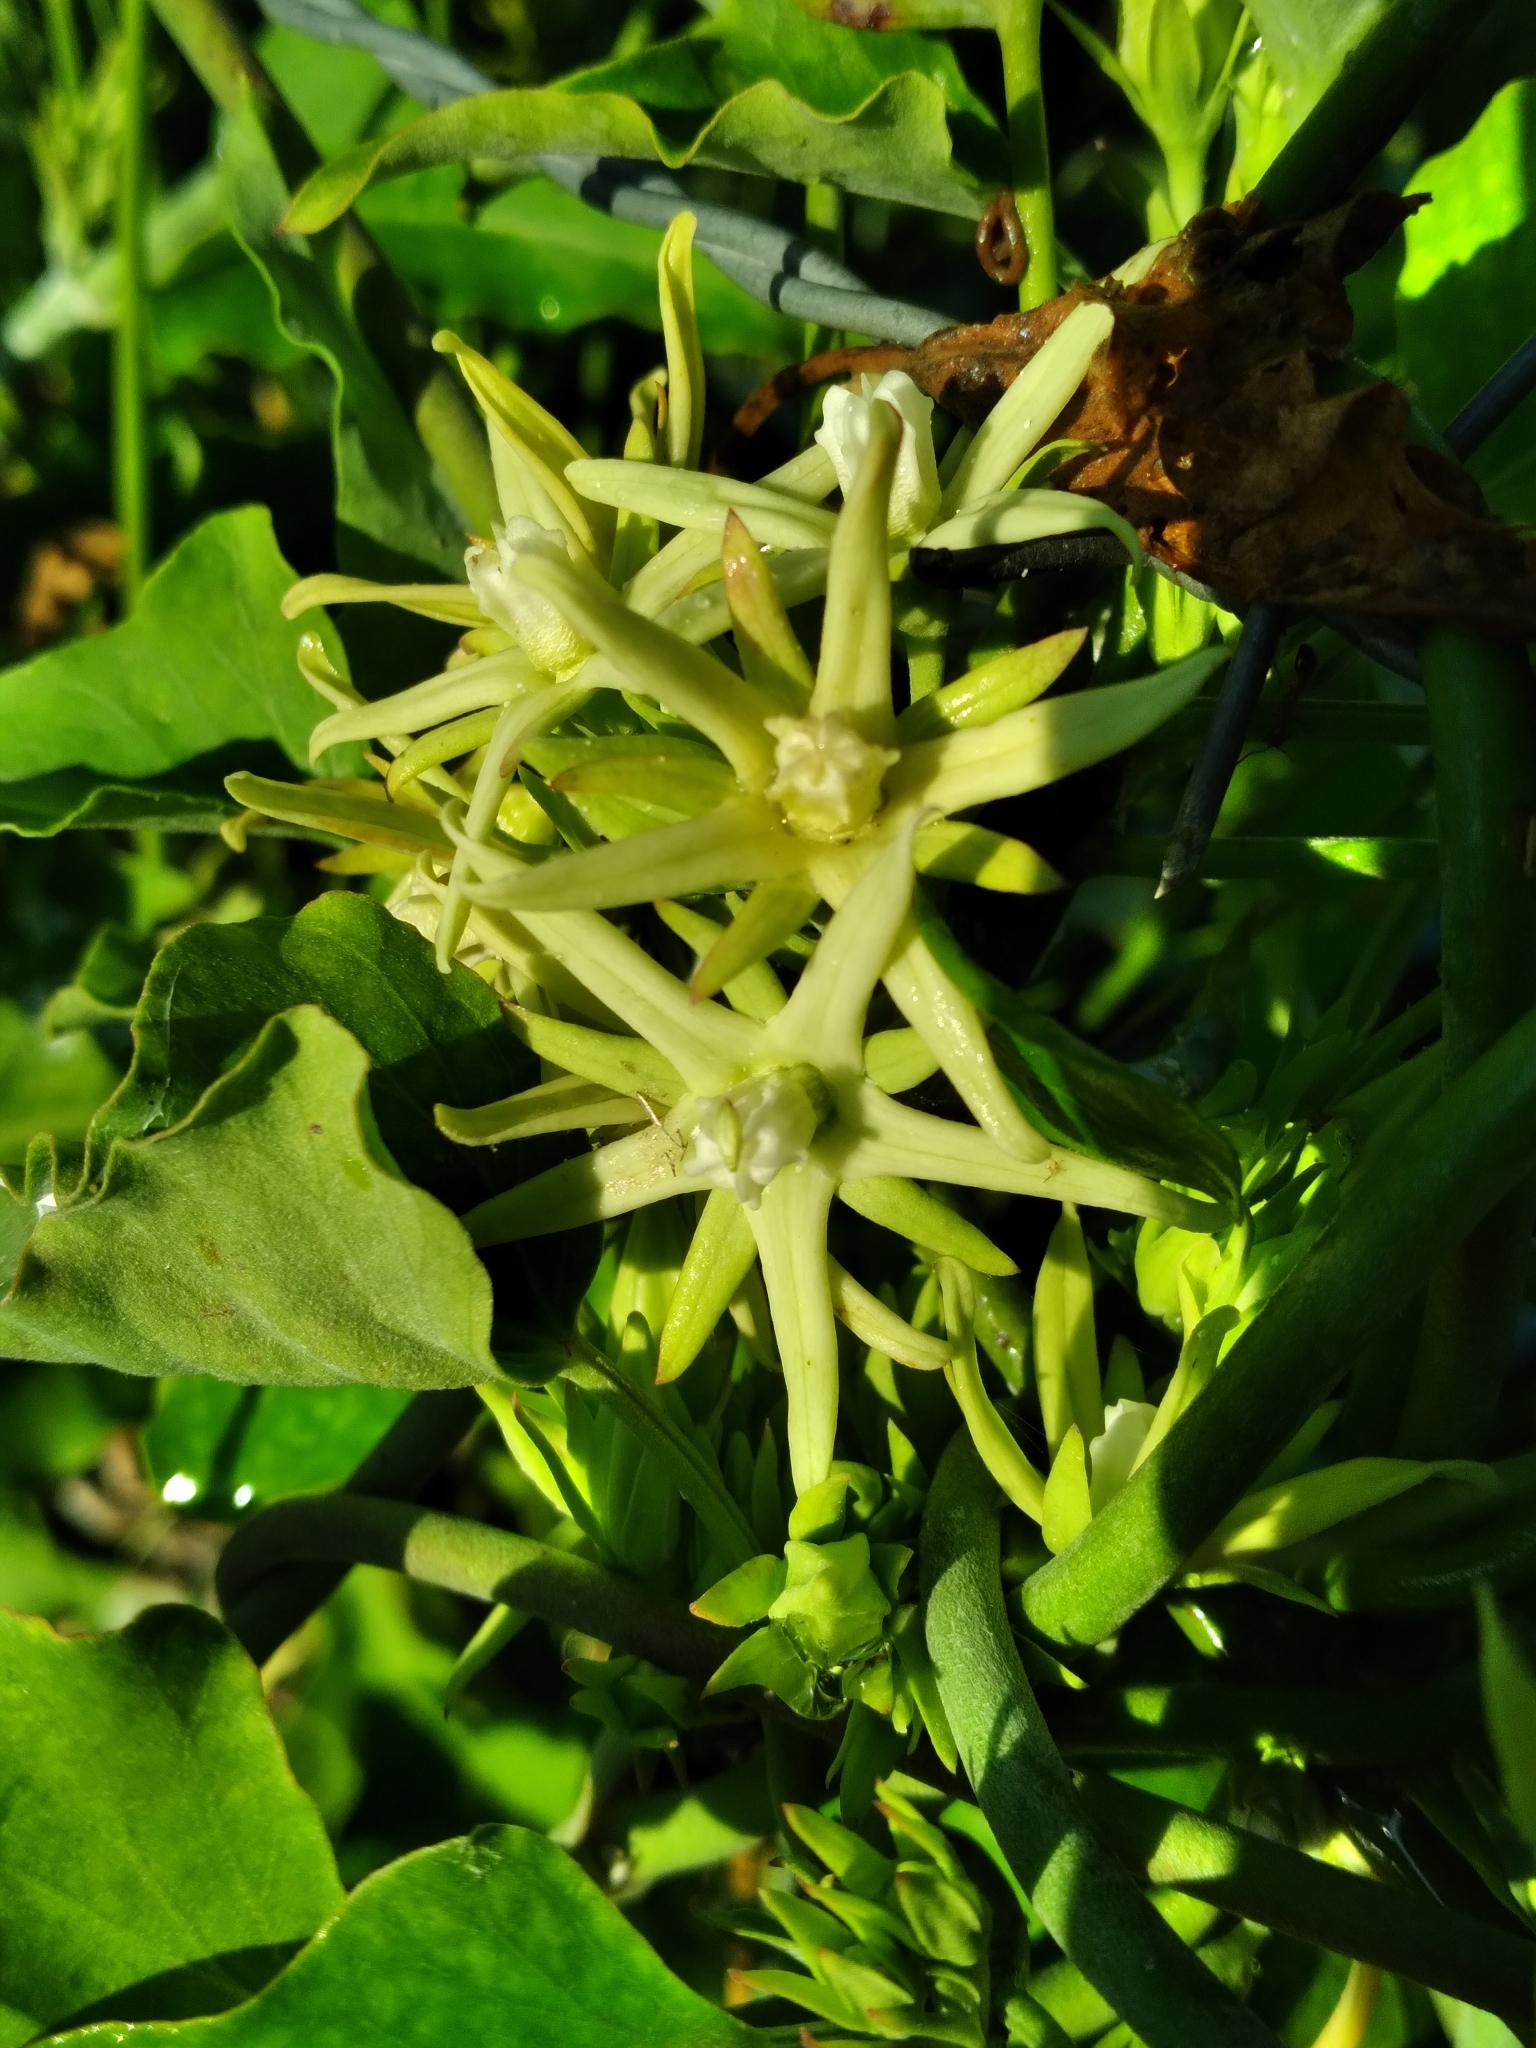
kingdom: Plantae
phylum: Tracheophyta
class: Magnoliopsida
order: Gentianales
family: Apocynaceae
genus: Araujia
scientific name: Araujia odorata
